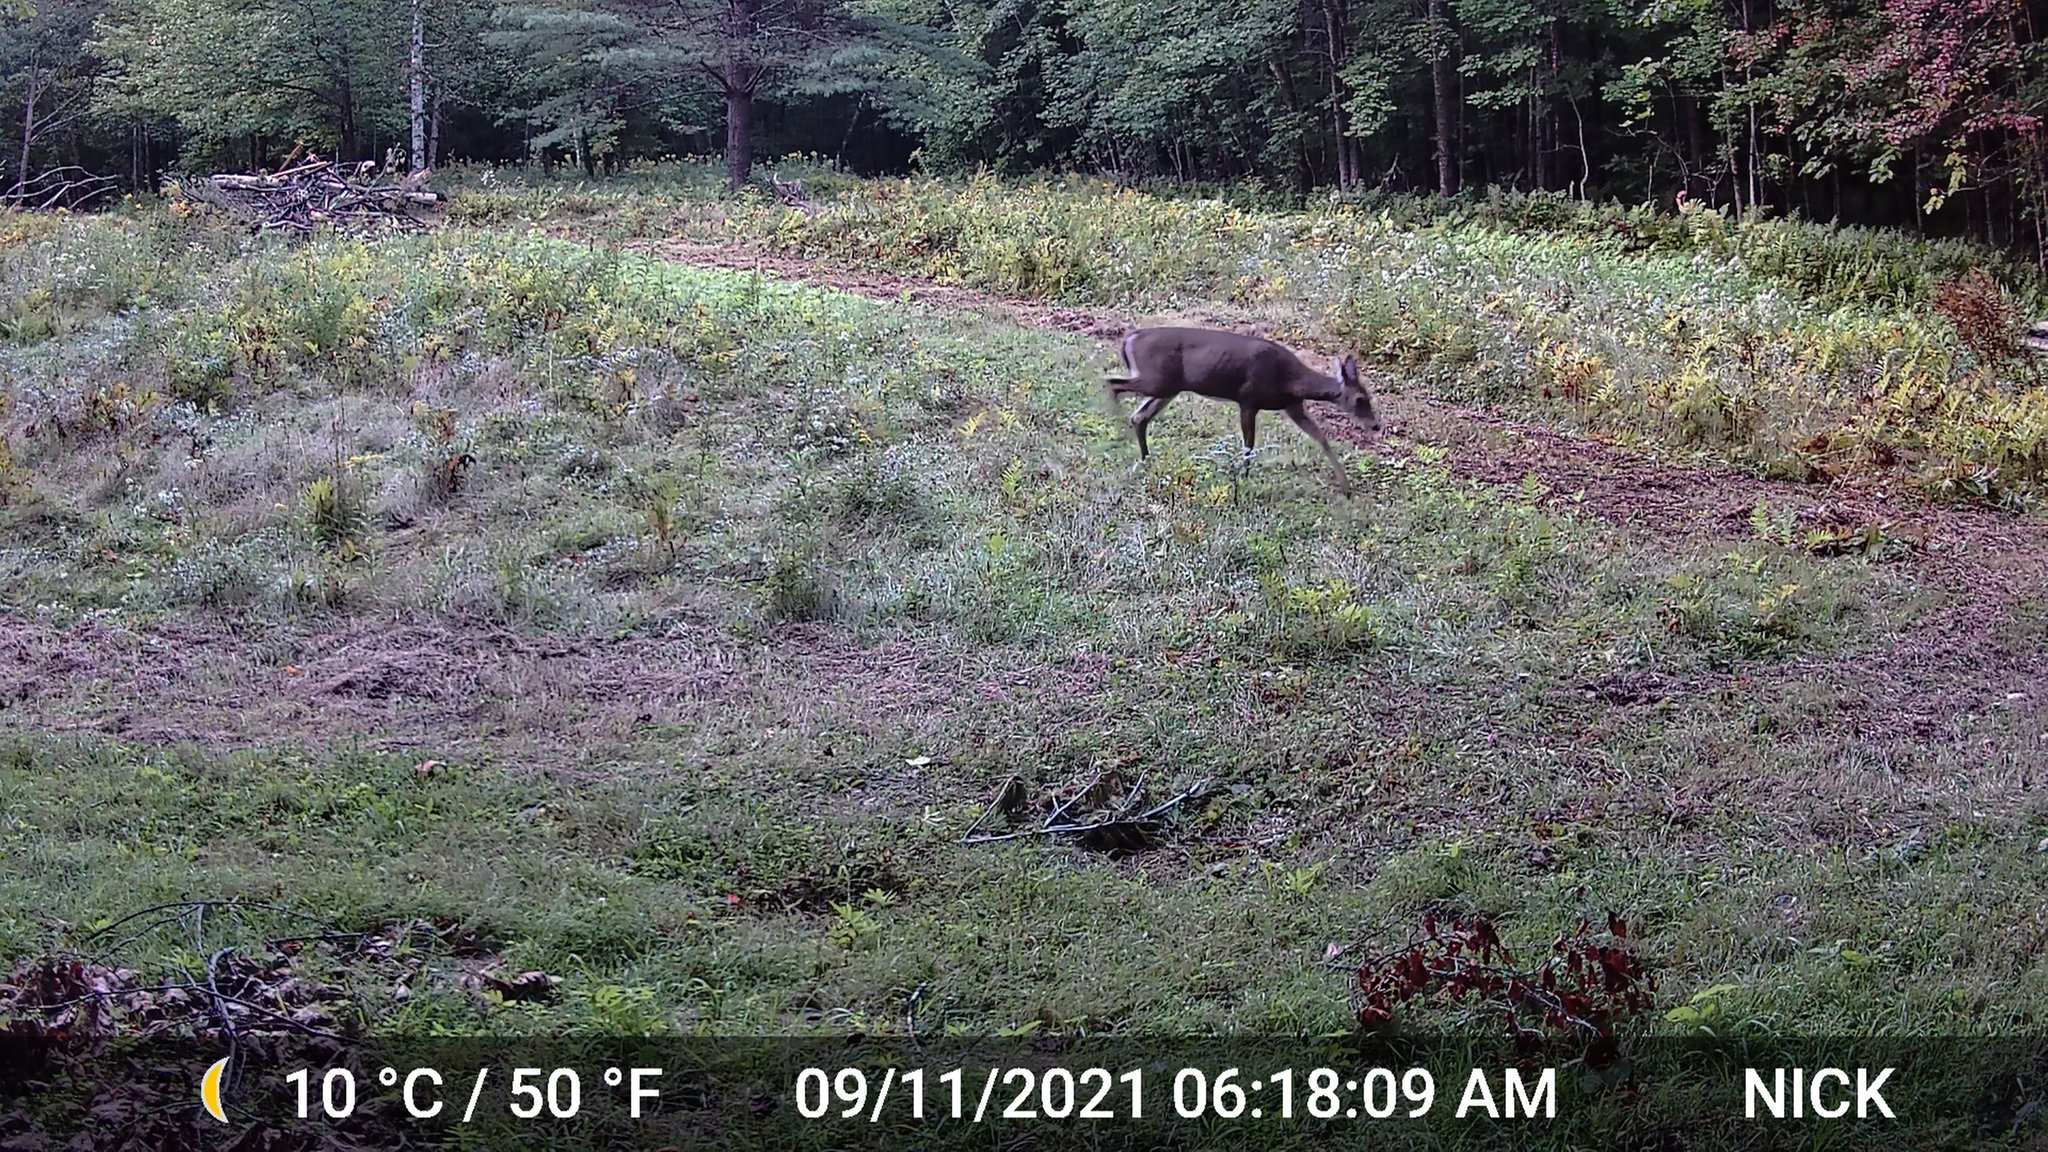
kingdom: Animalia
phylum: Chordata
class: Mammalia
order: Artiodactyla
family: Cervidae
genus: Odocoileus
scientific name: Odocoileus virginianus
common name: White-tailed deer
